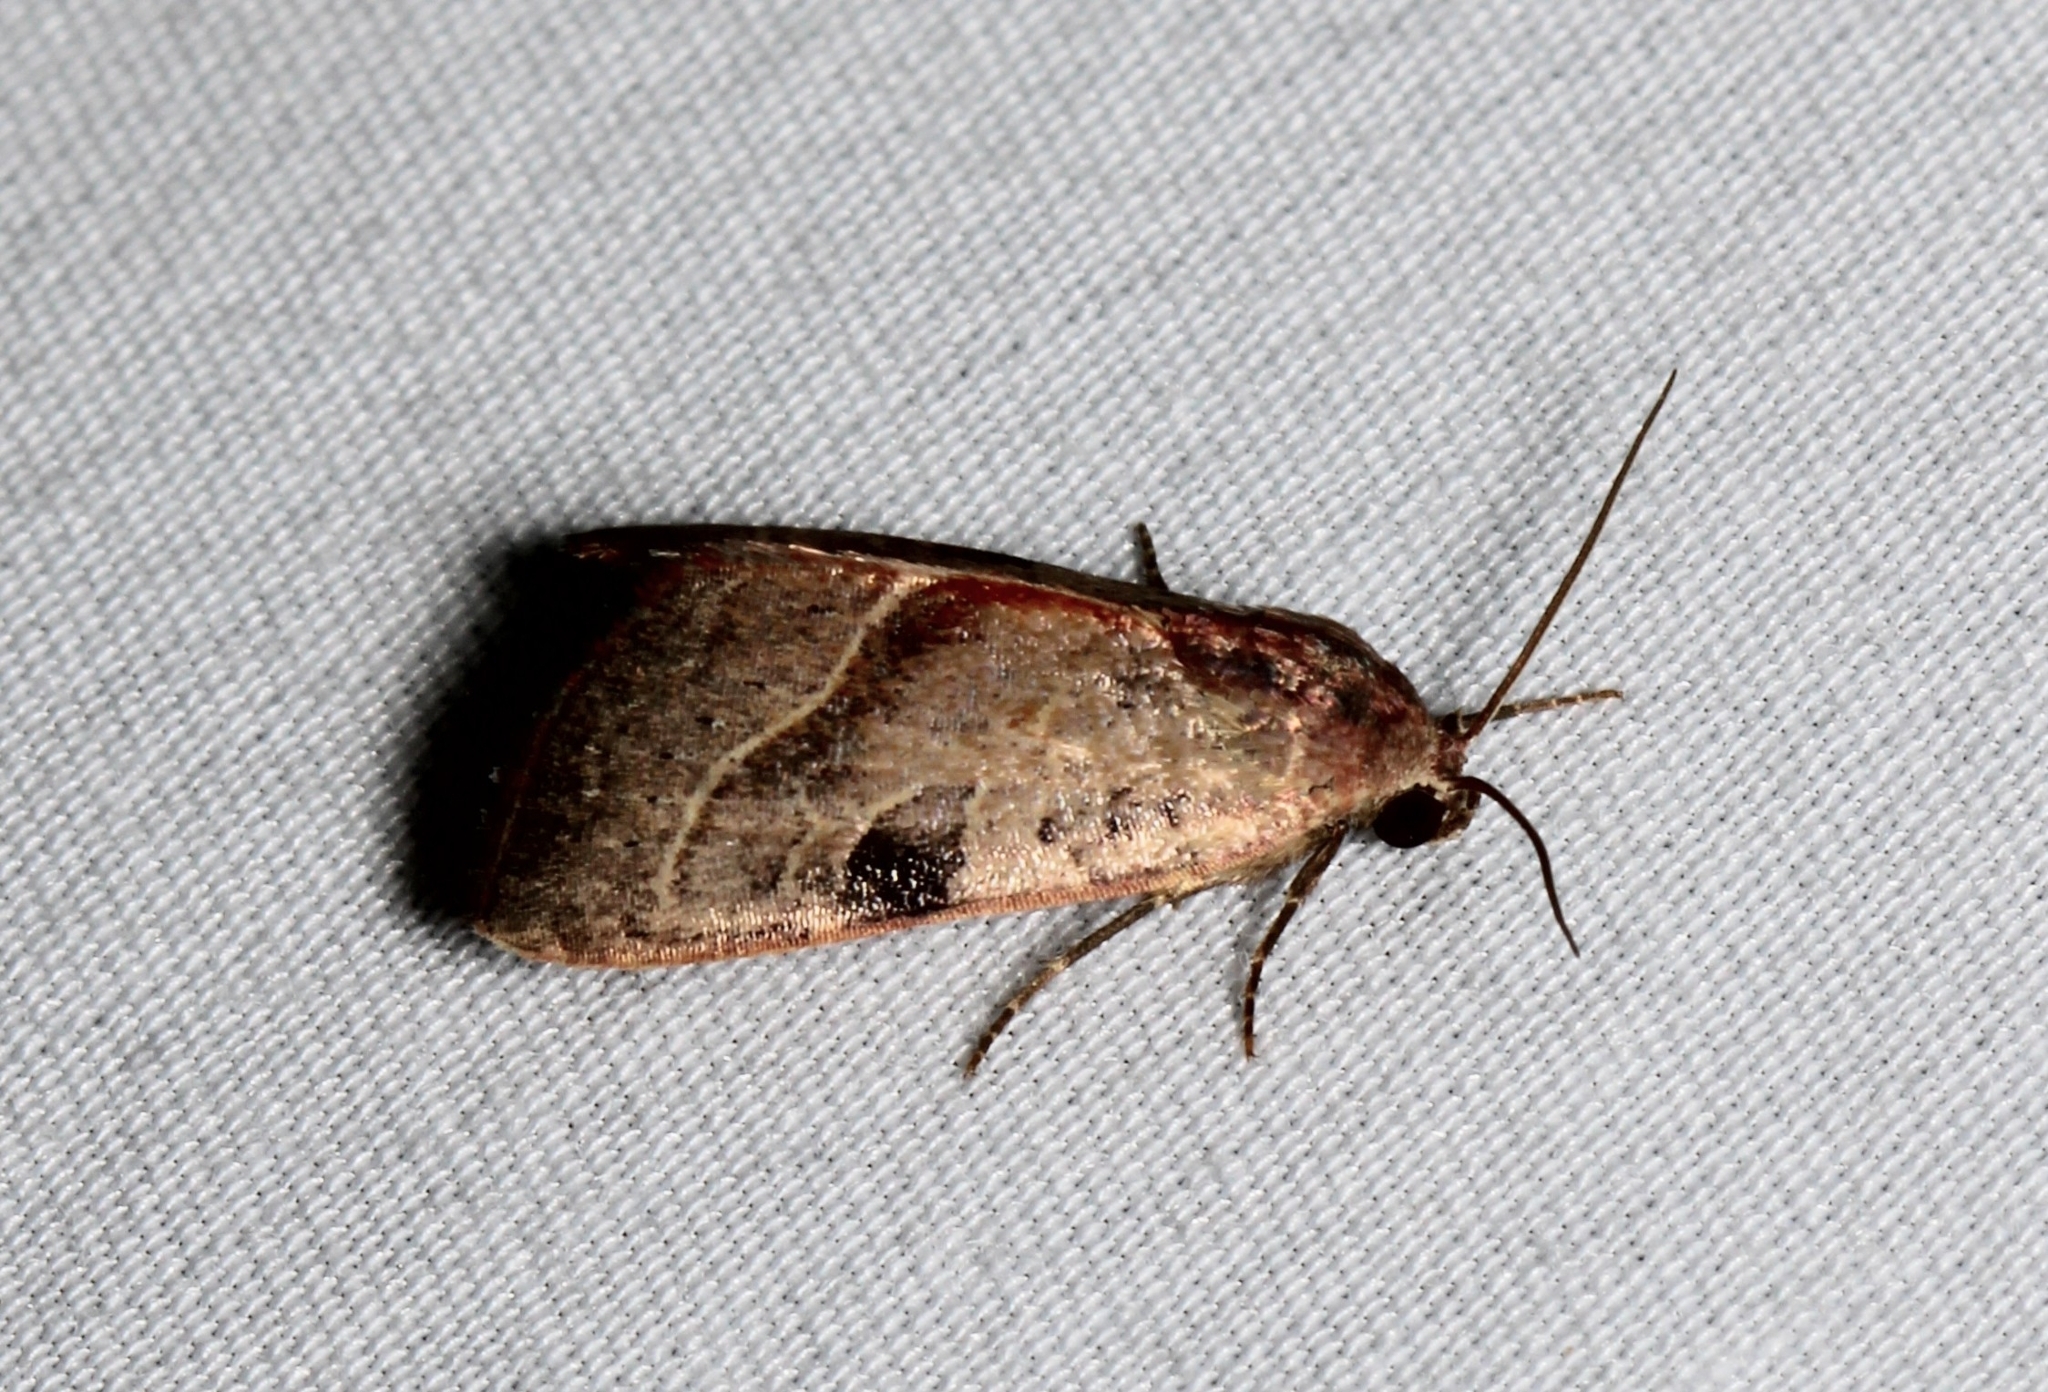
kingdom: Animalia
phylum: Arthropoda
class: Insecta
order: Lepidoptera
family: Noctuidae
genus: Galgula
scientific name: Galgula partita
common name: Wedgeling
